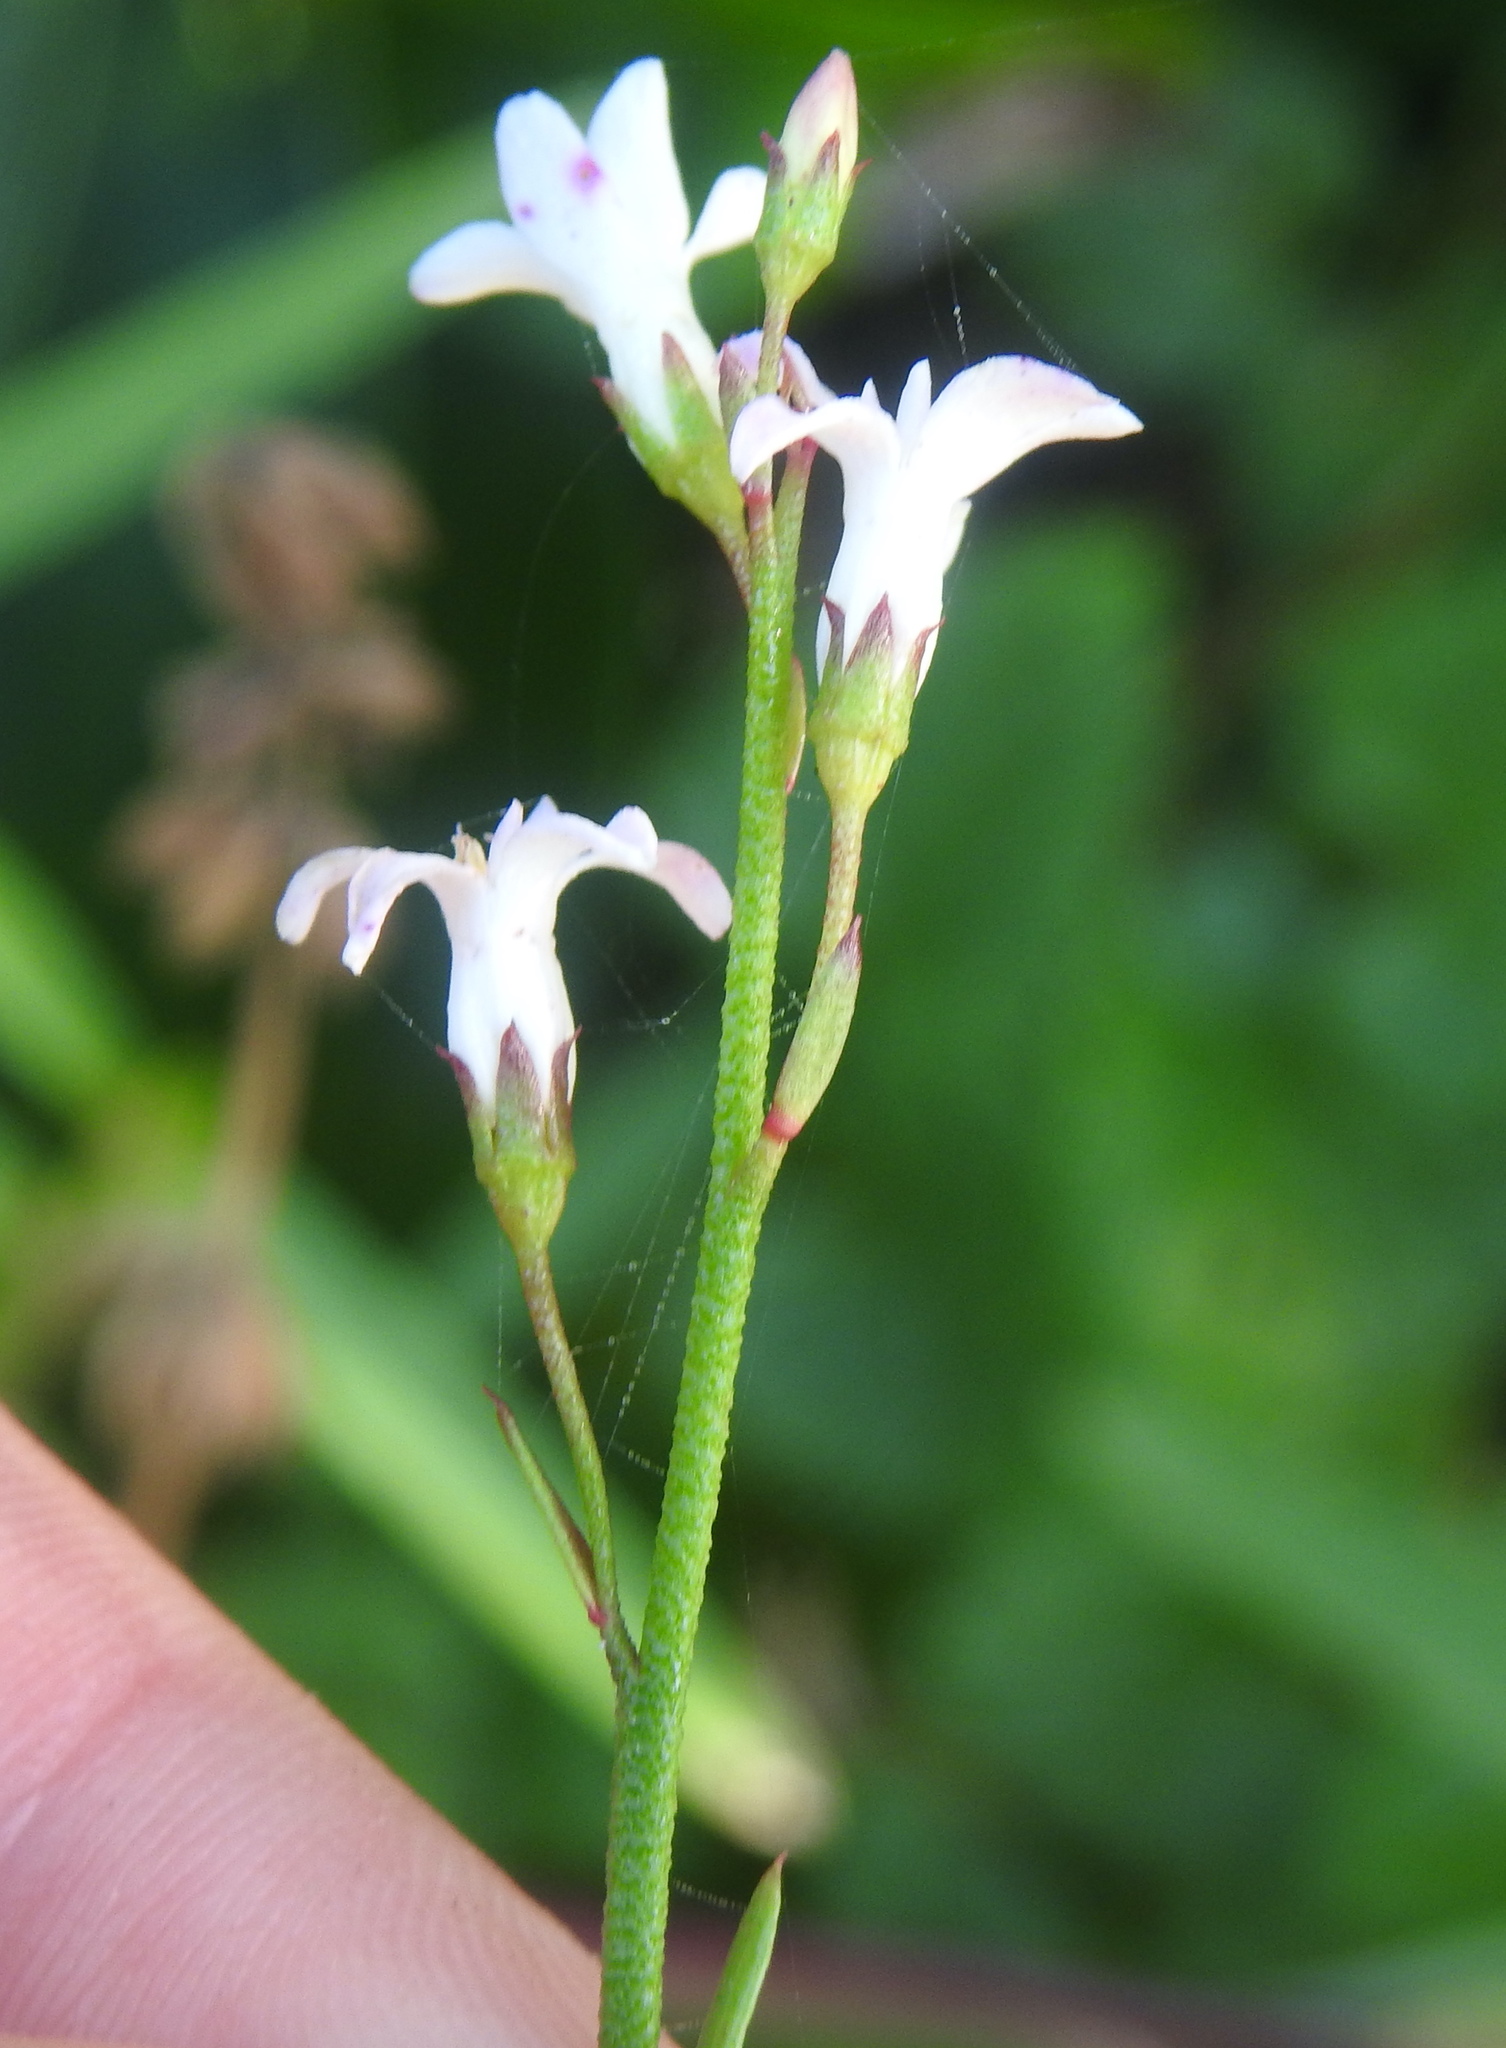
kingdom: Plantae
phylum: Tracheophyta
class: Magnoliopsida
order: Ericales
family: Primulaceae
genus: Samolus
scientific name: Samolus porosus
